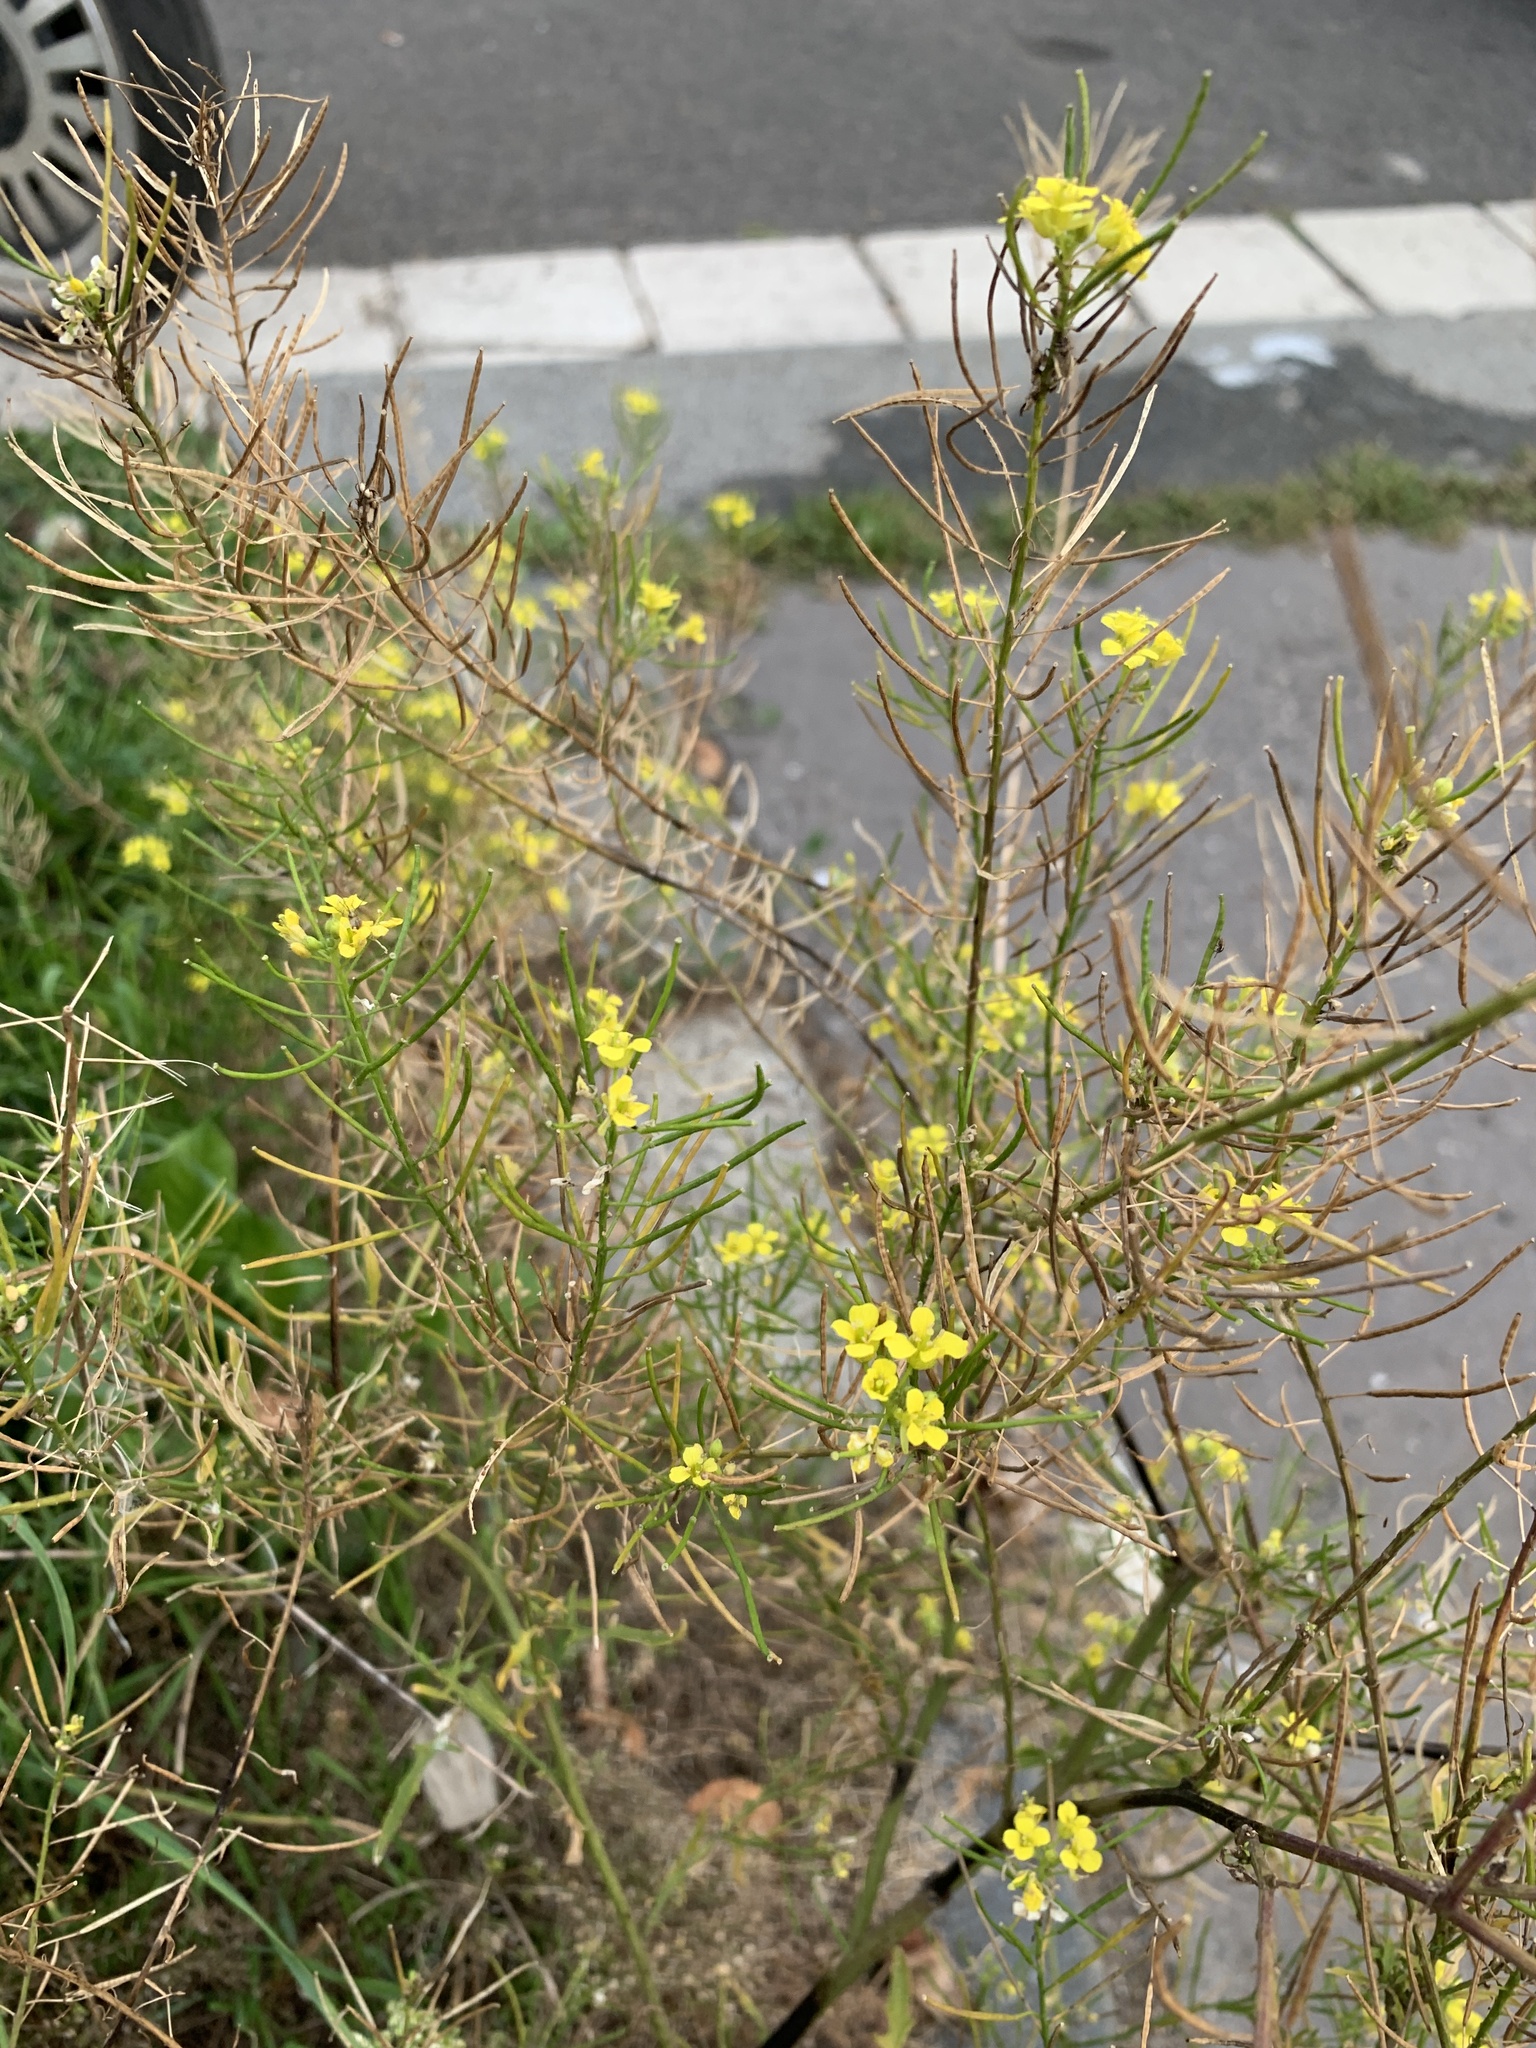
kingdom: Plantae
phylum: Tracheophyta
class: Magnoliopsida
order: Brassicales
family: Brassicaceae
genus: Sisymbrium
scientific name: Sisymbrium loeselii
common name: False london-rocket
